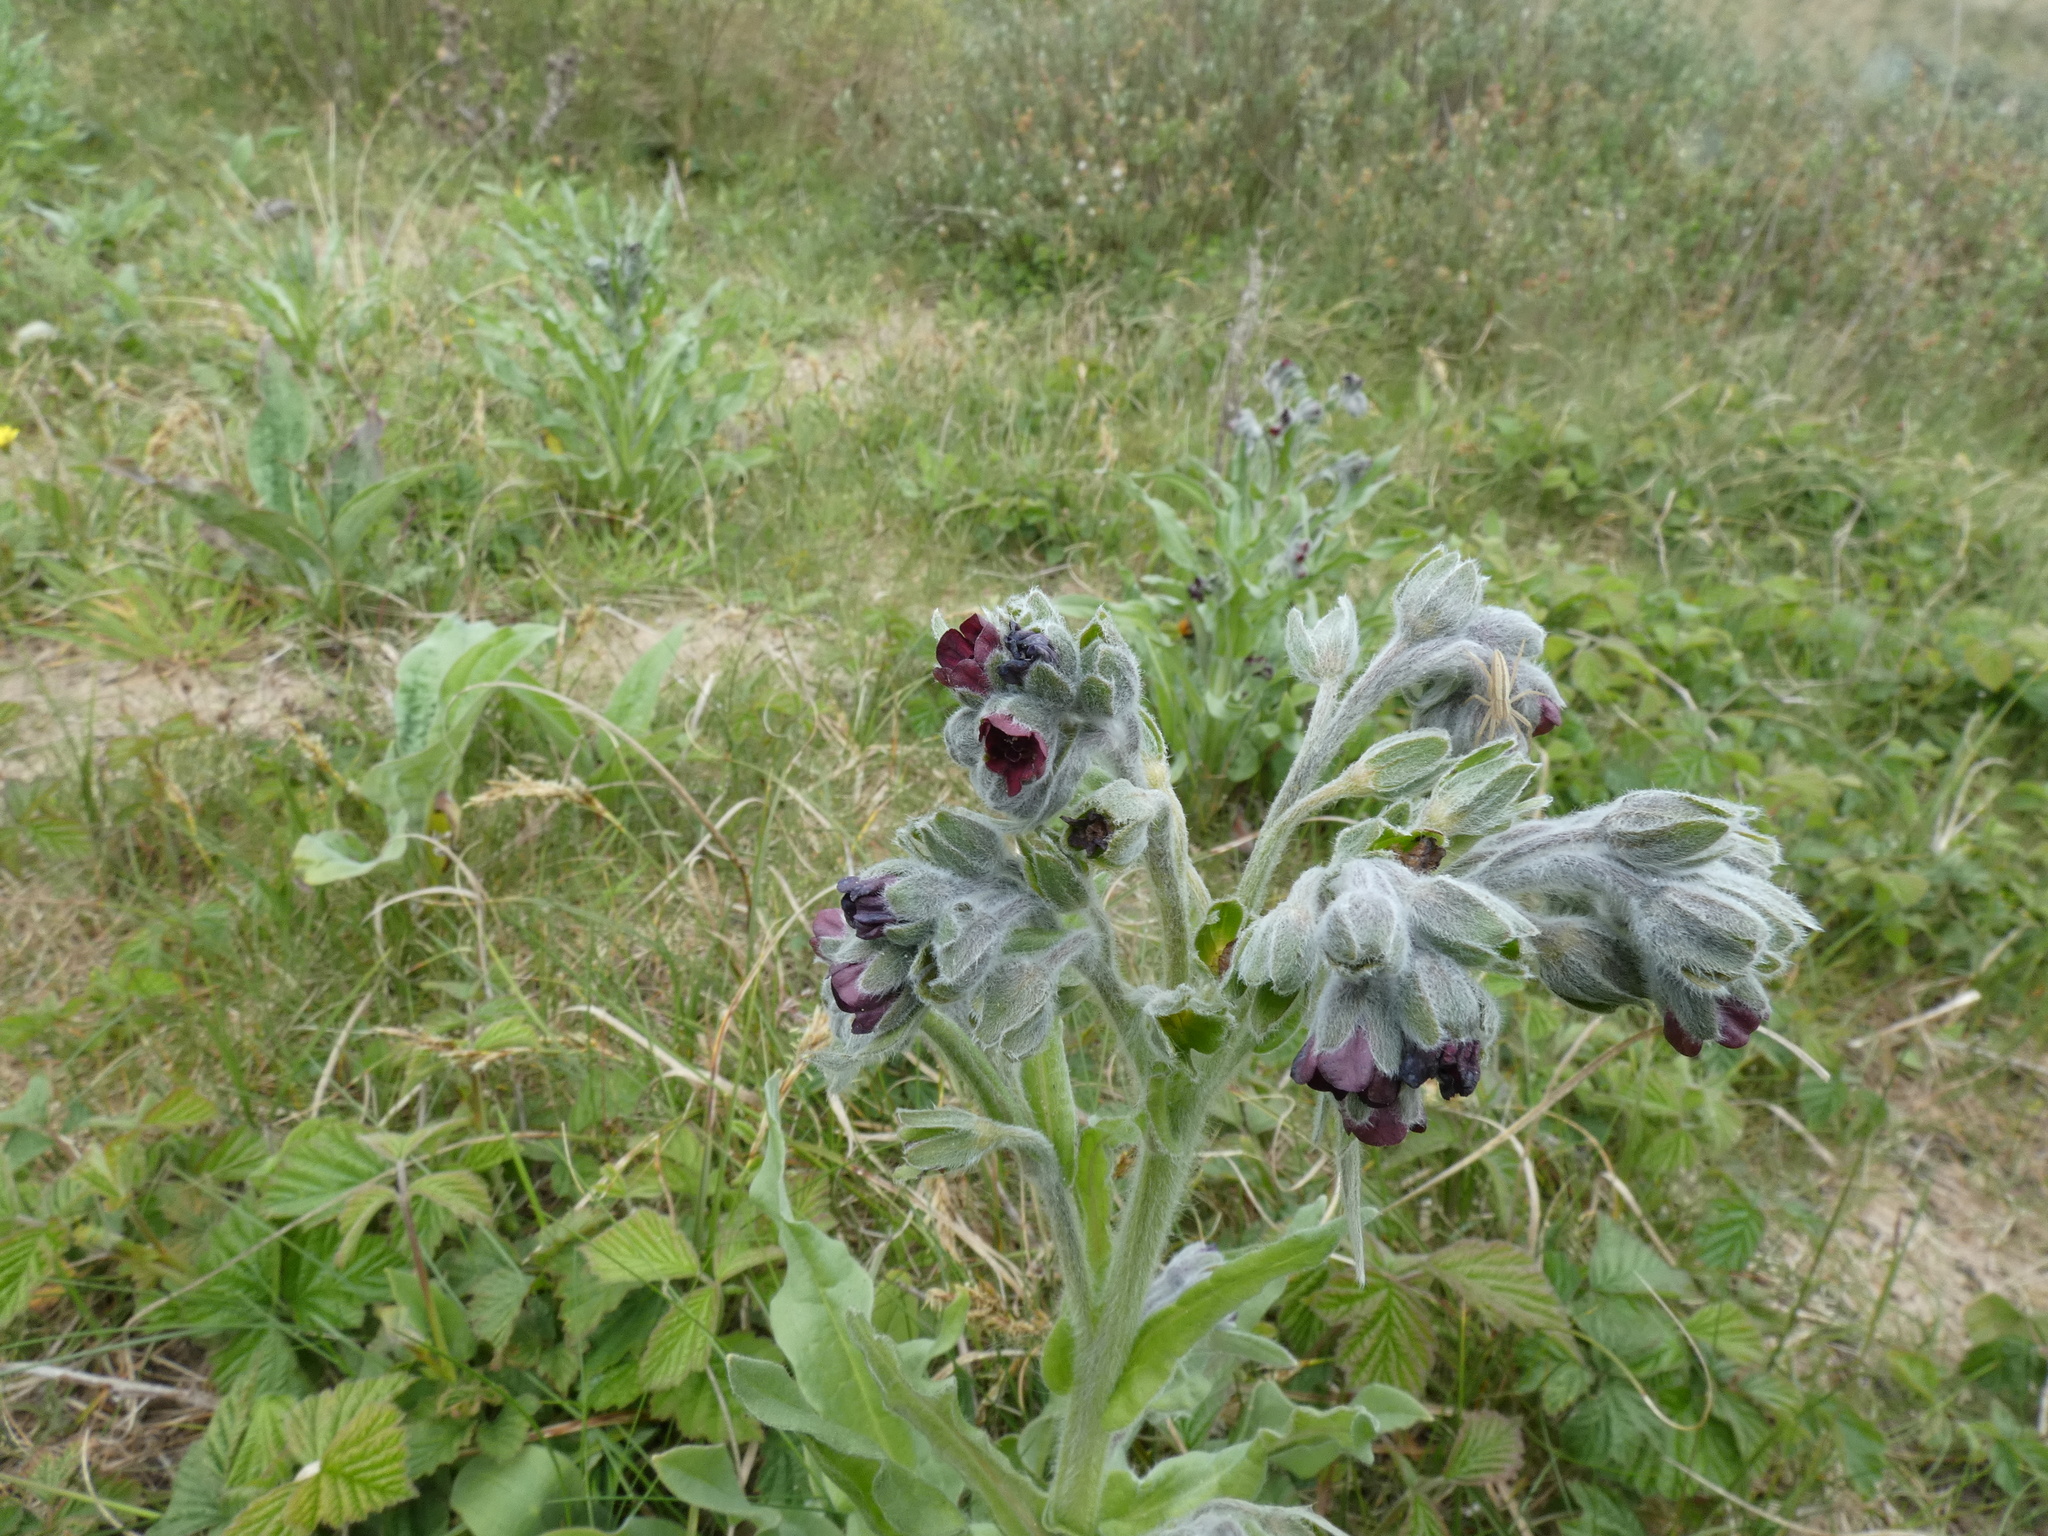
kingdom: Plantae
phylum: Tracheophyta
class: Magnoliopsida
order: Boraginales
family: Boraginaceae
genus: Cynoglossum
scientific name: Cynoglossum officinale
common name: Hound's-tongue
